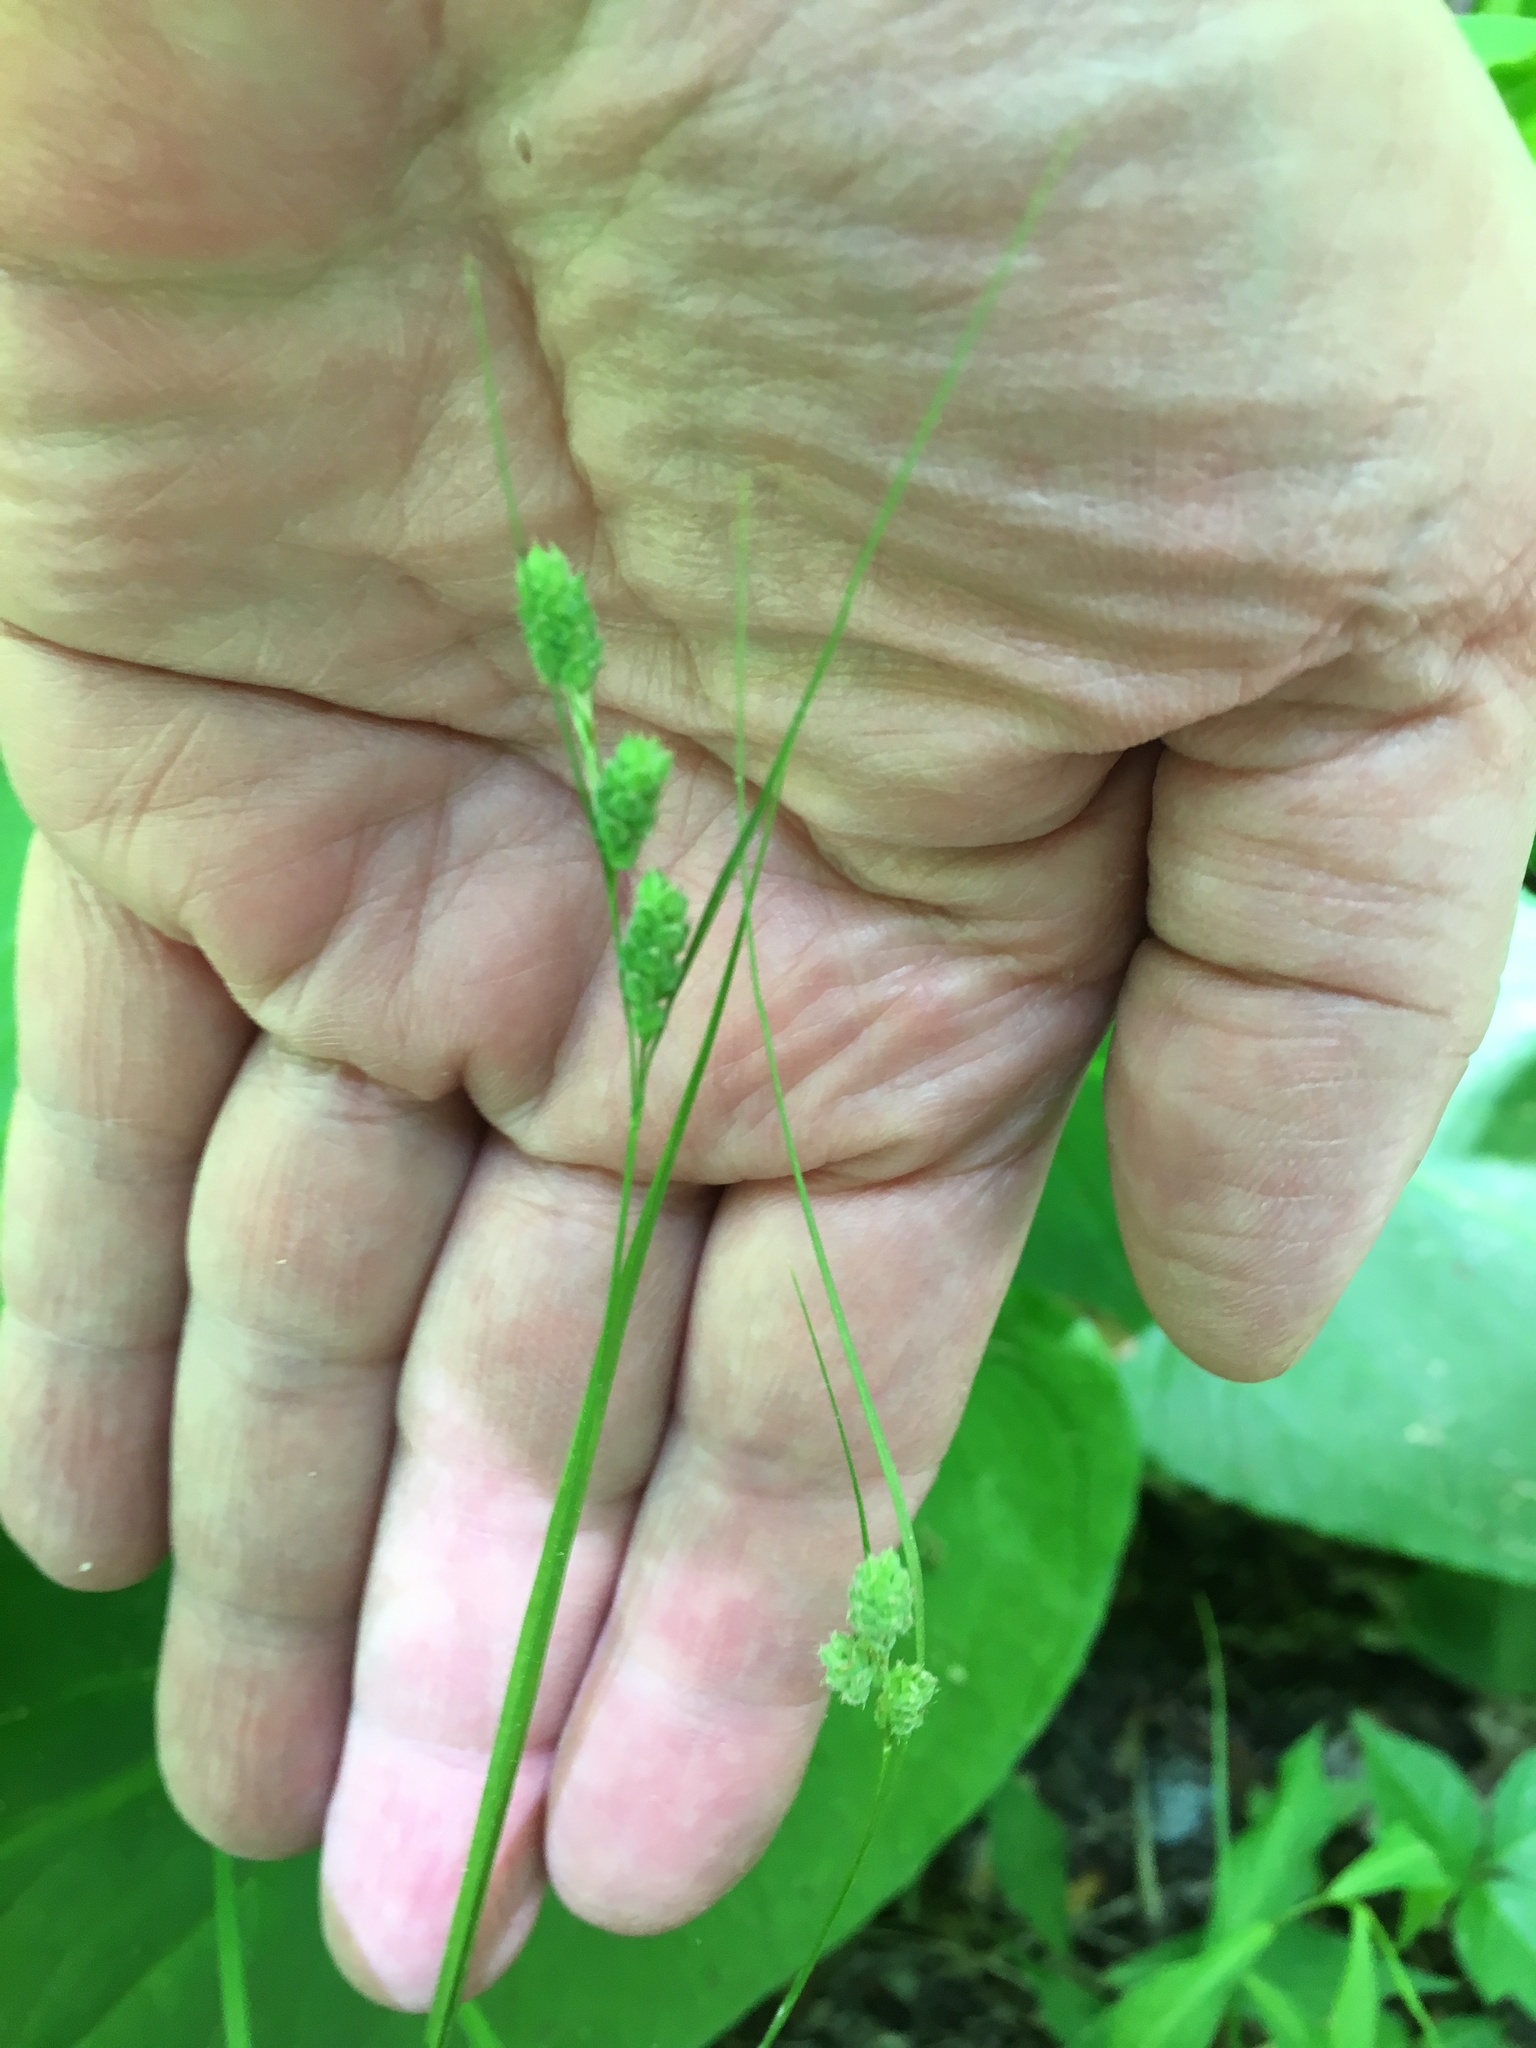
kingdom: Plantae
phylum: Tracheophyta
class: Liliopsida
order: Poales
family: Cyperaceae
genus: Carex
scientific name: Carex swanii
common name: Downy green sedge
